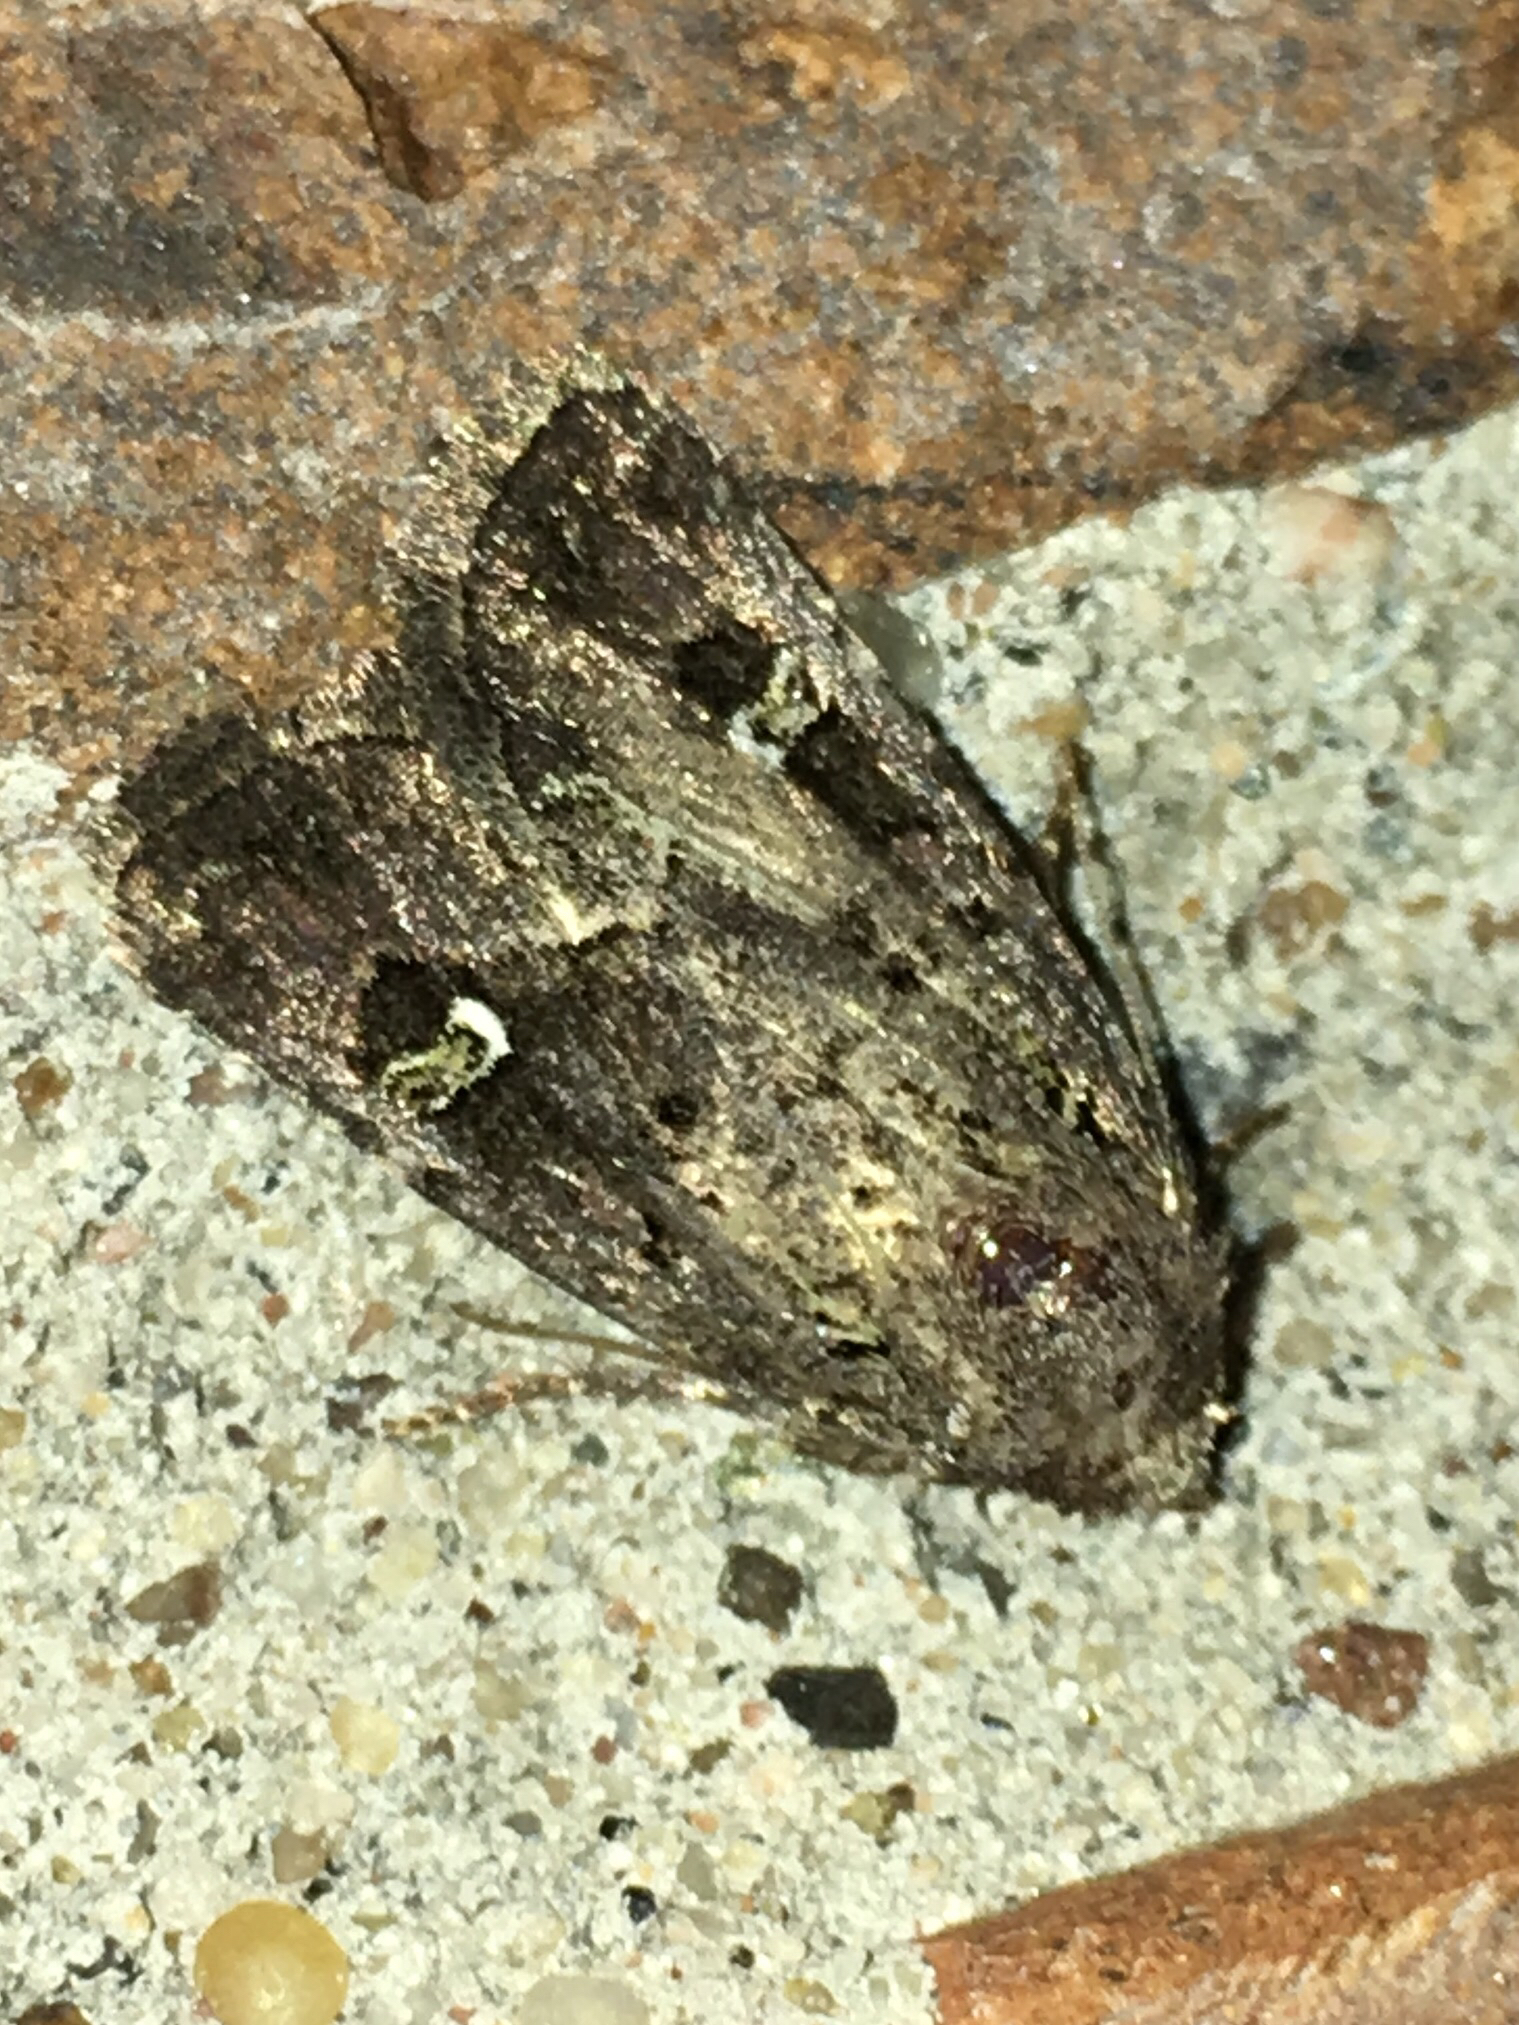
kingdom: Animalia
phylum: Arthropoda
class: Insecta
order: Lepidoptera
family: Noctuidae
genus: Lacinipolia
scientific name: Lacinipolia renigera
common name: Kidney-spotted minor
